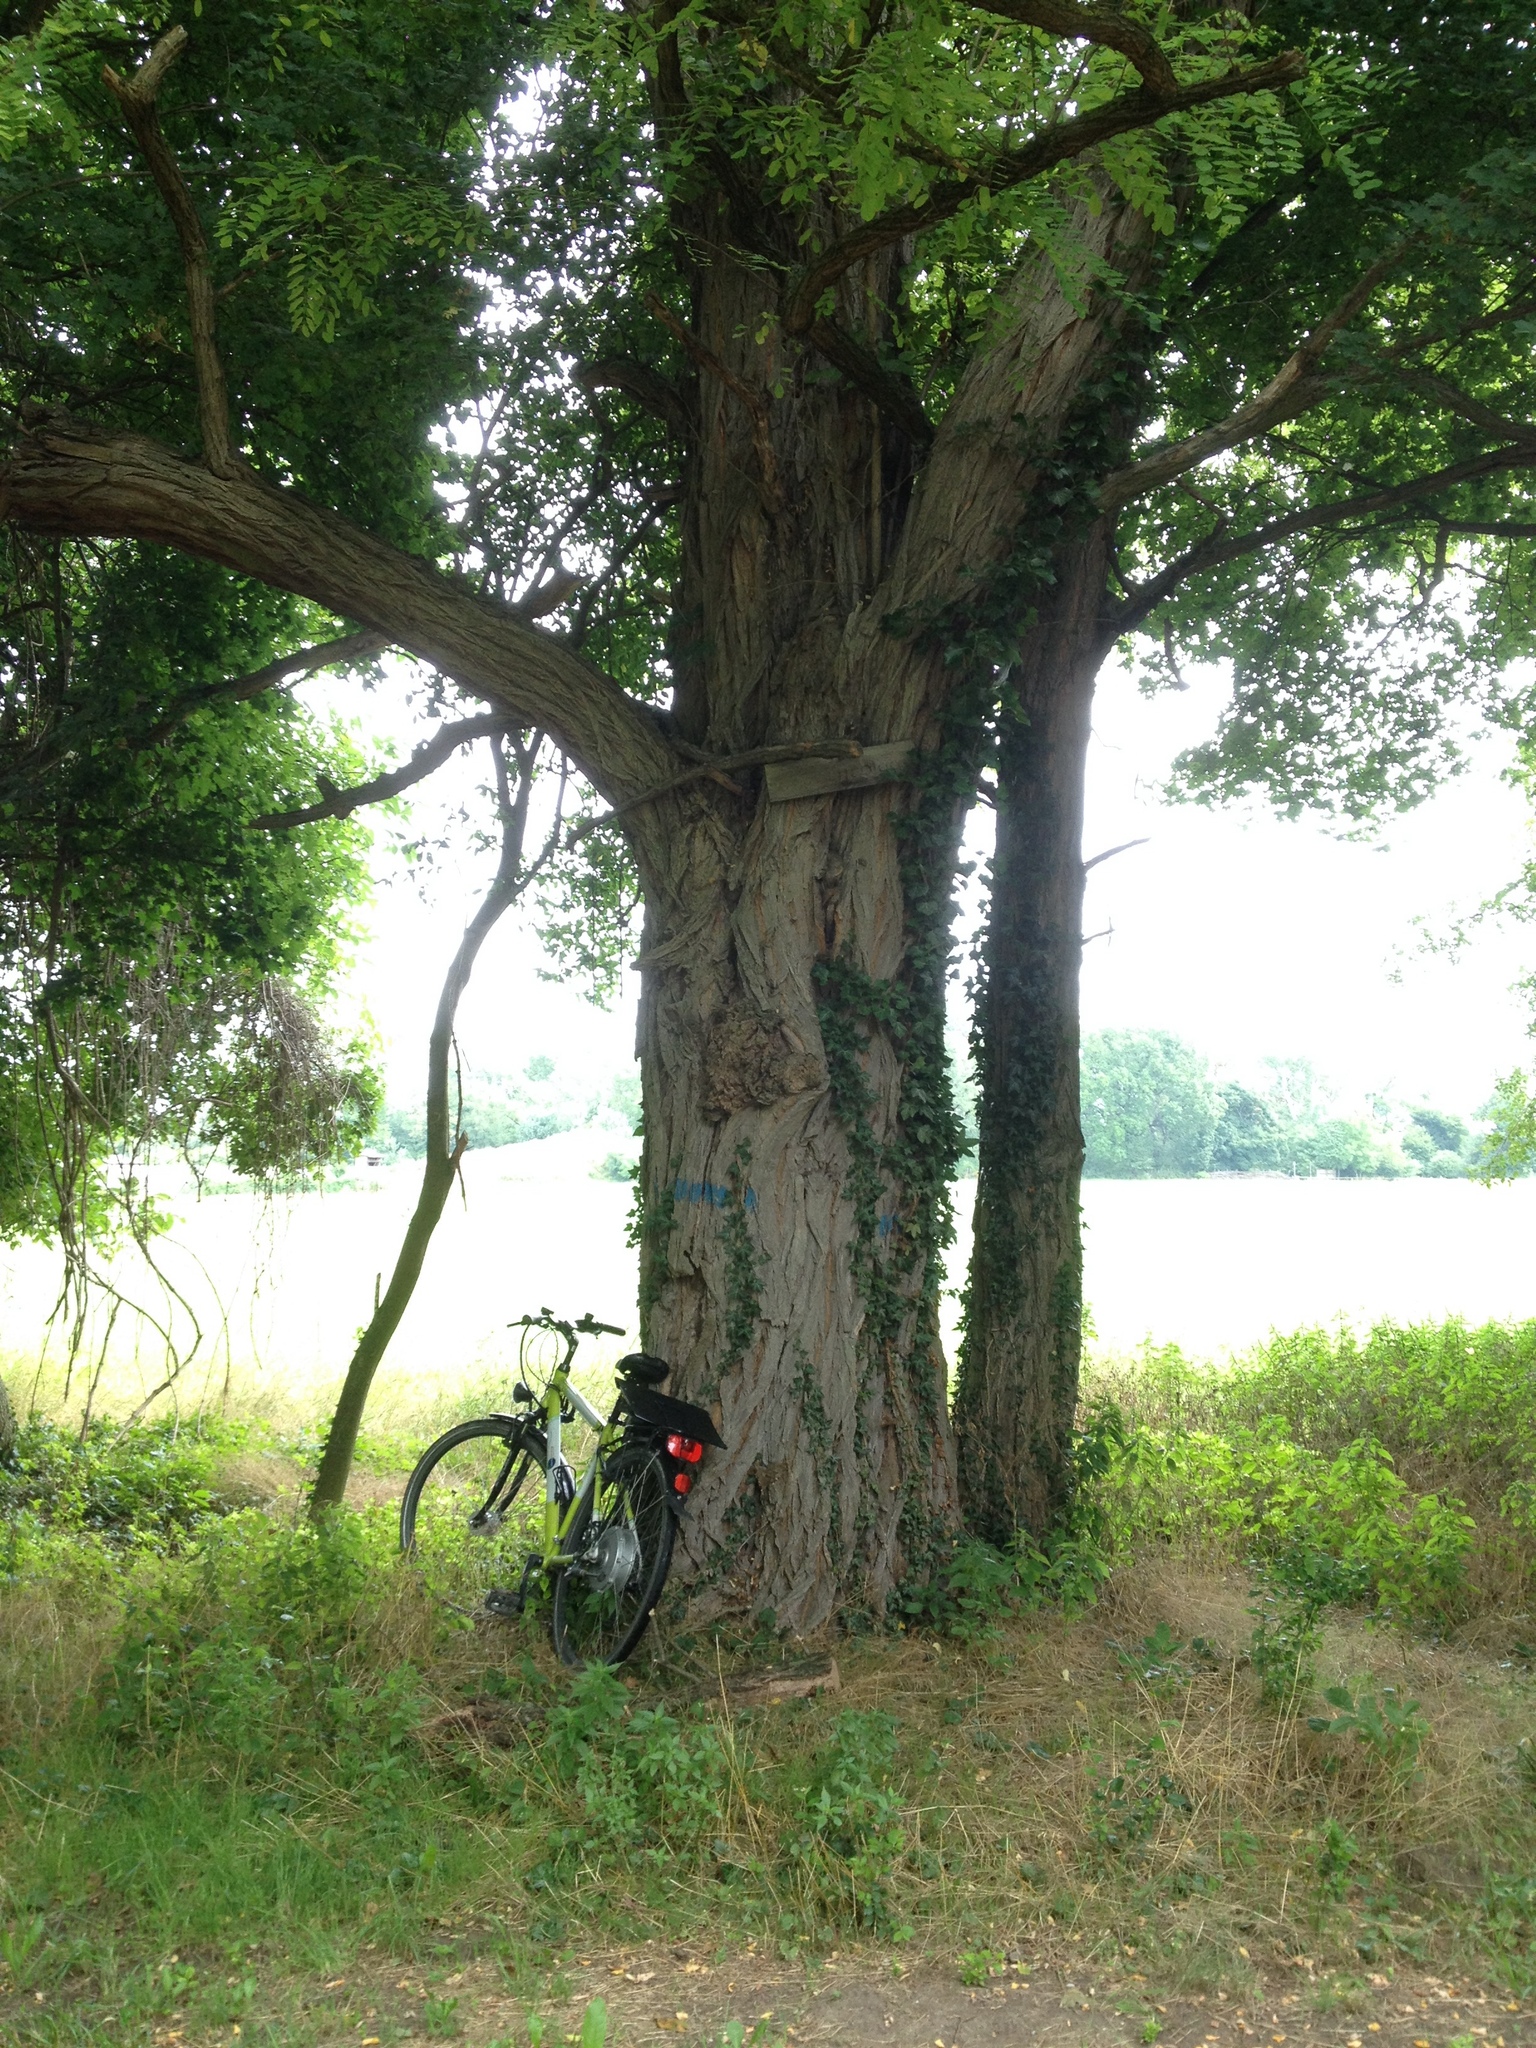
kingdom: Plantae
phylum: Tracheophyta
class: Magnoliopsida
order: Fabales
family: Fabaceae
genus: Robinia
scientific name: Robinia pseudoacacia
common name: Black locust
